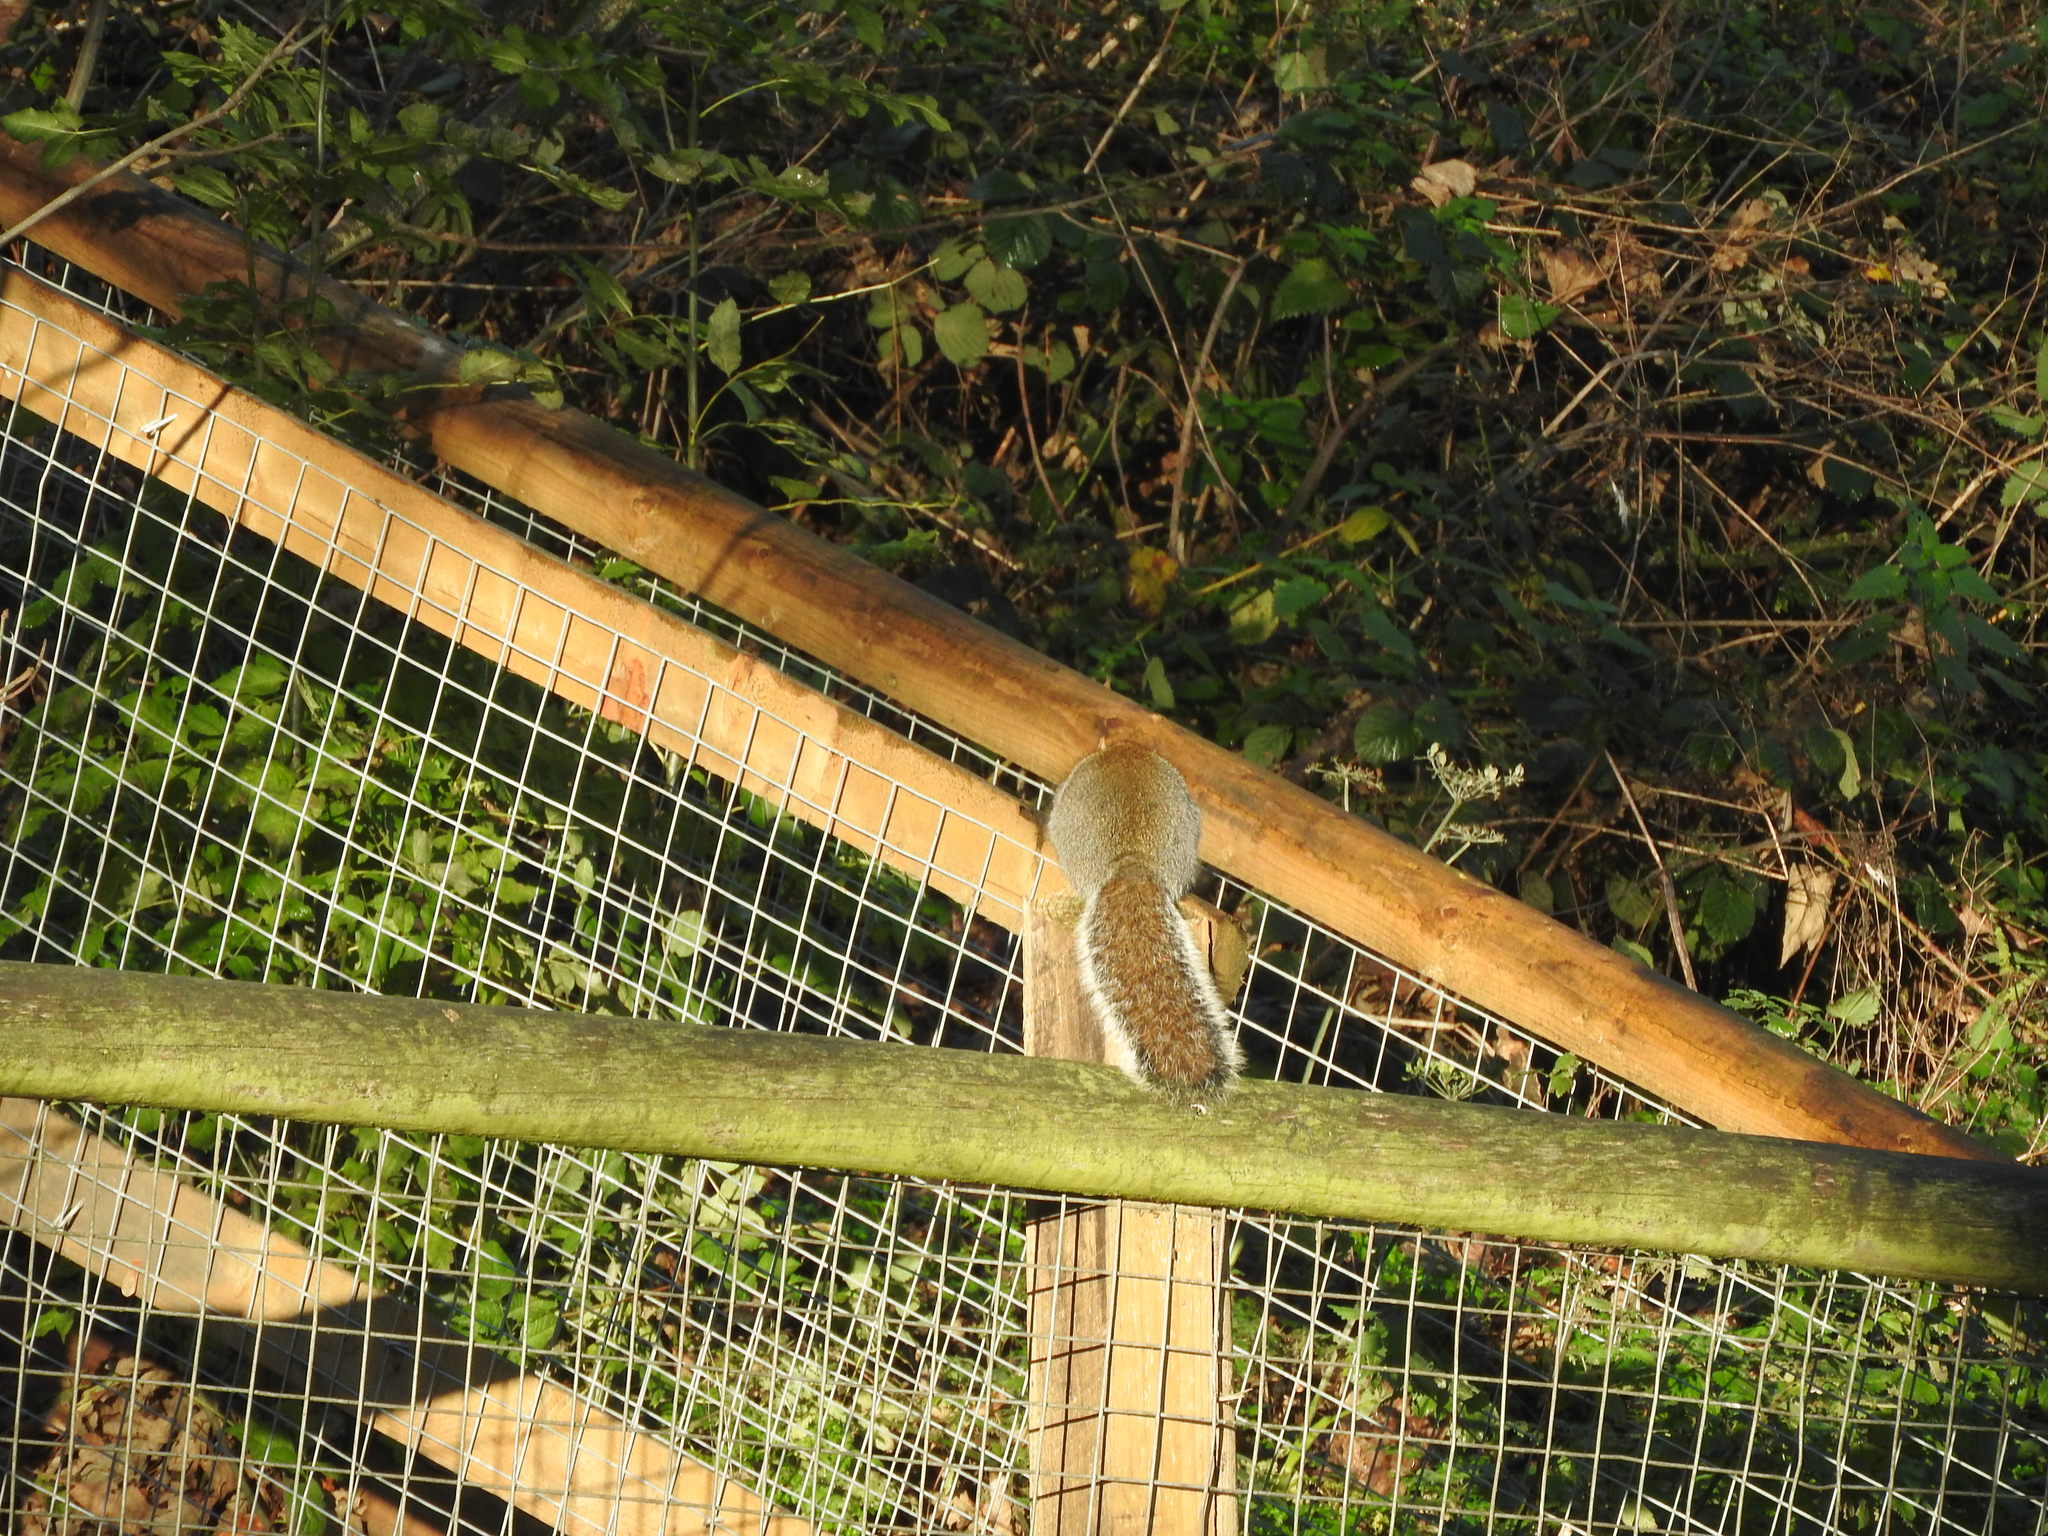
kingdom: Animalia
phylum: Chordata
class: Mammalia
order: Rodentia
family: Sciuridae
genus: Sciurus
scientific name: Sciurus carolinensis
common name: Eastern gray squirrel
